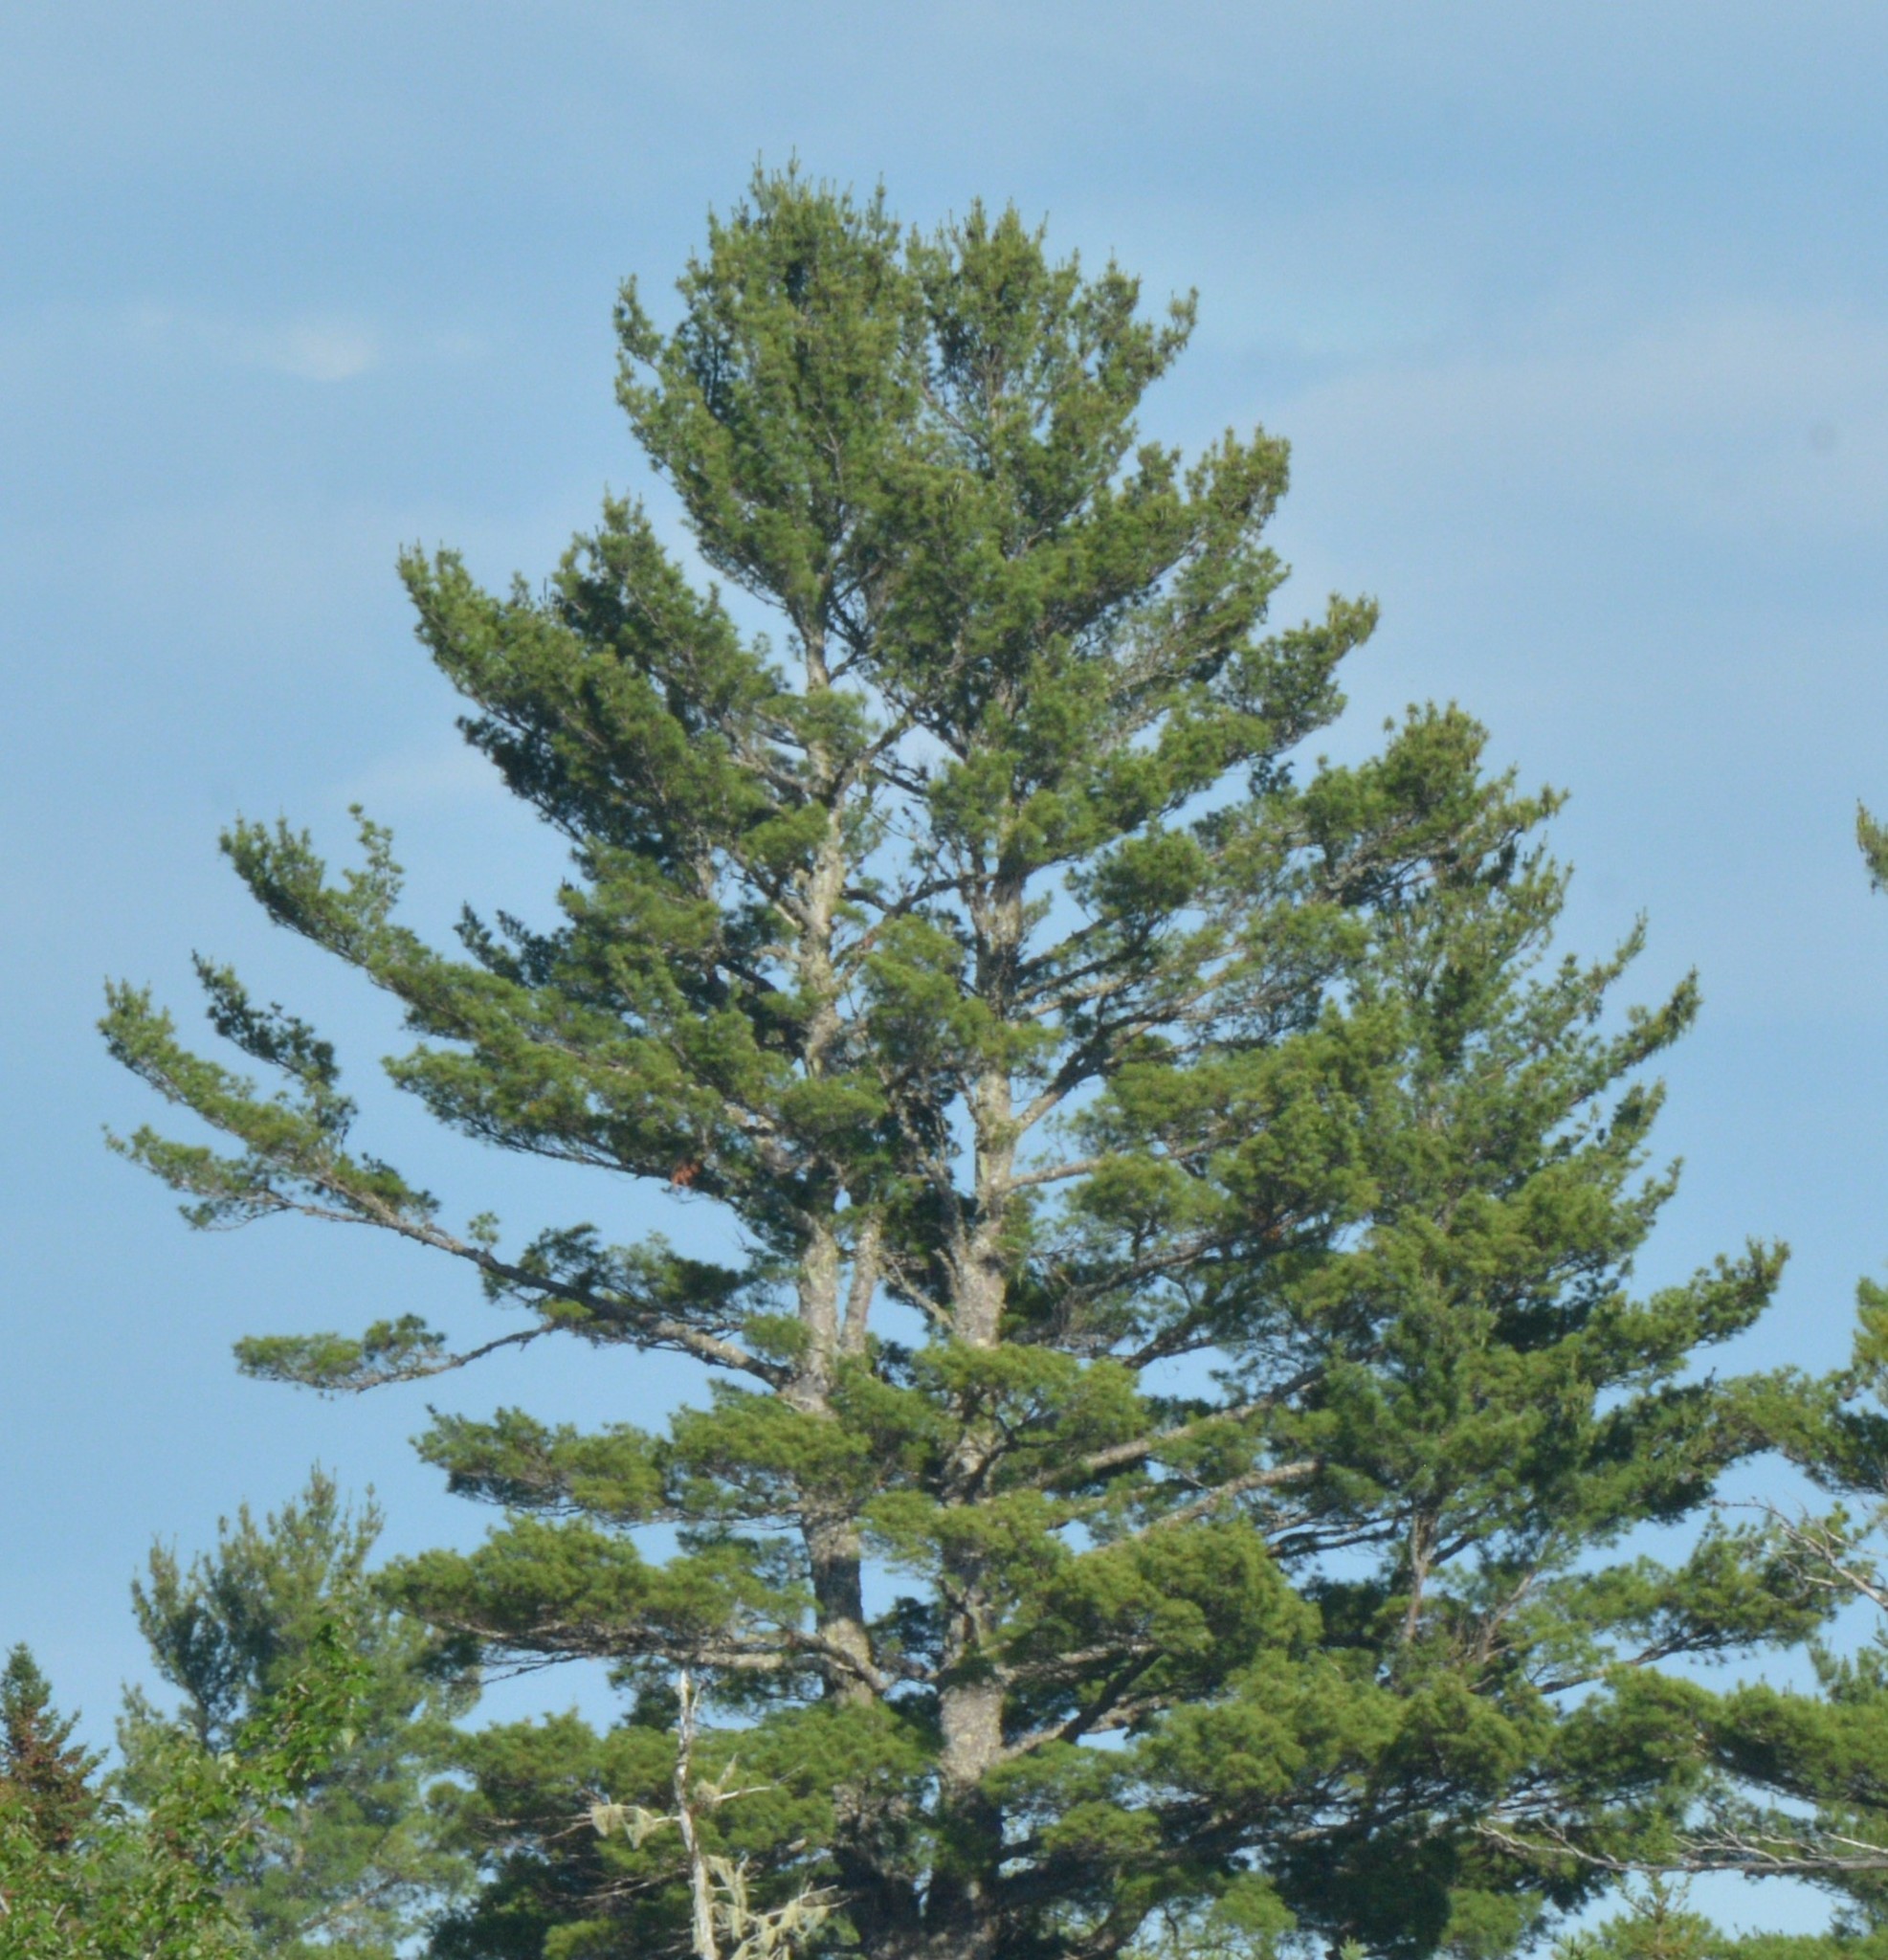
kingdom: Plantae
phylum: Tracheophyta
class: Pinopsida
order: Pinales
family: Pinaceae
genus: Pinus
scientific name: Pinus strobus
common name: Weymouth pine
